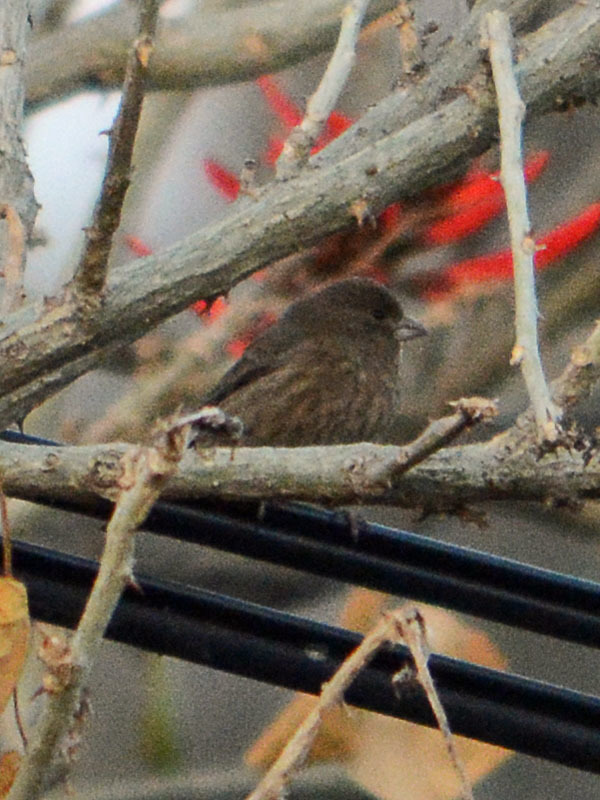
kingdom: Animalia
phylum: Chordata
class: Aves
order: Passeriformes
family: Fringillidae
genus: Haemorhous
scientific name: Haemorhous mexicanus
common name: House finch
